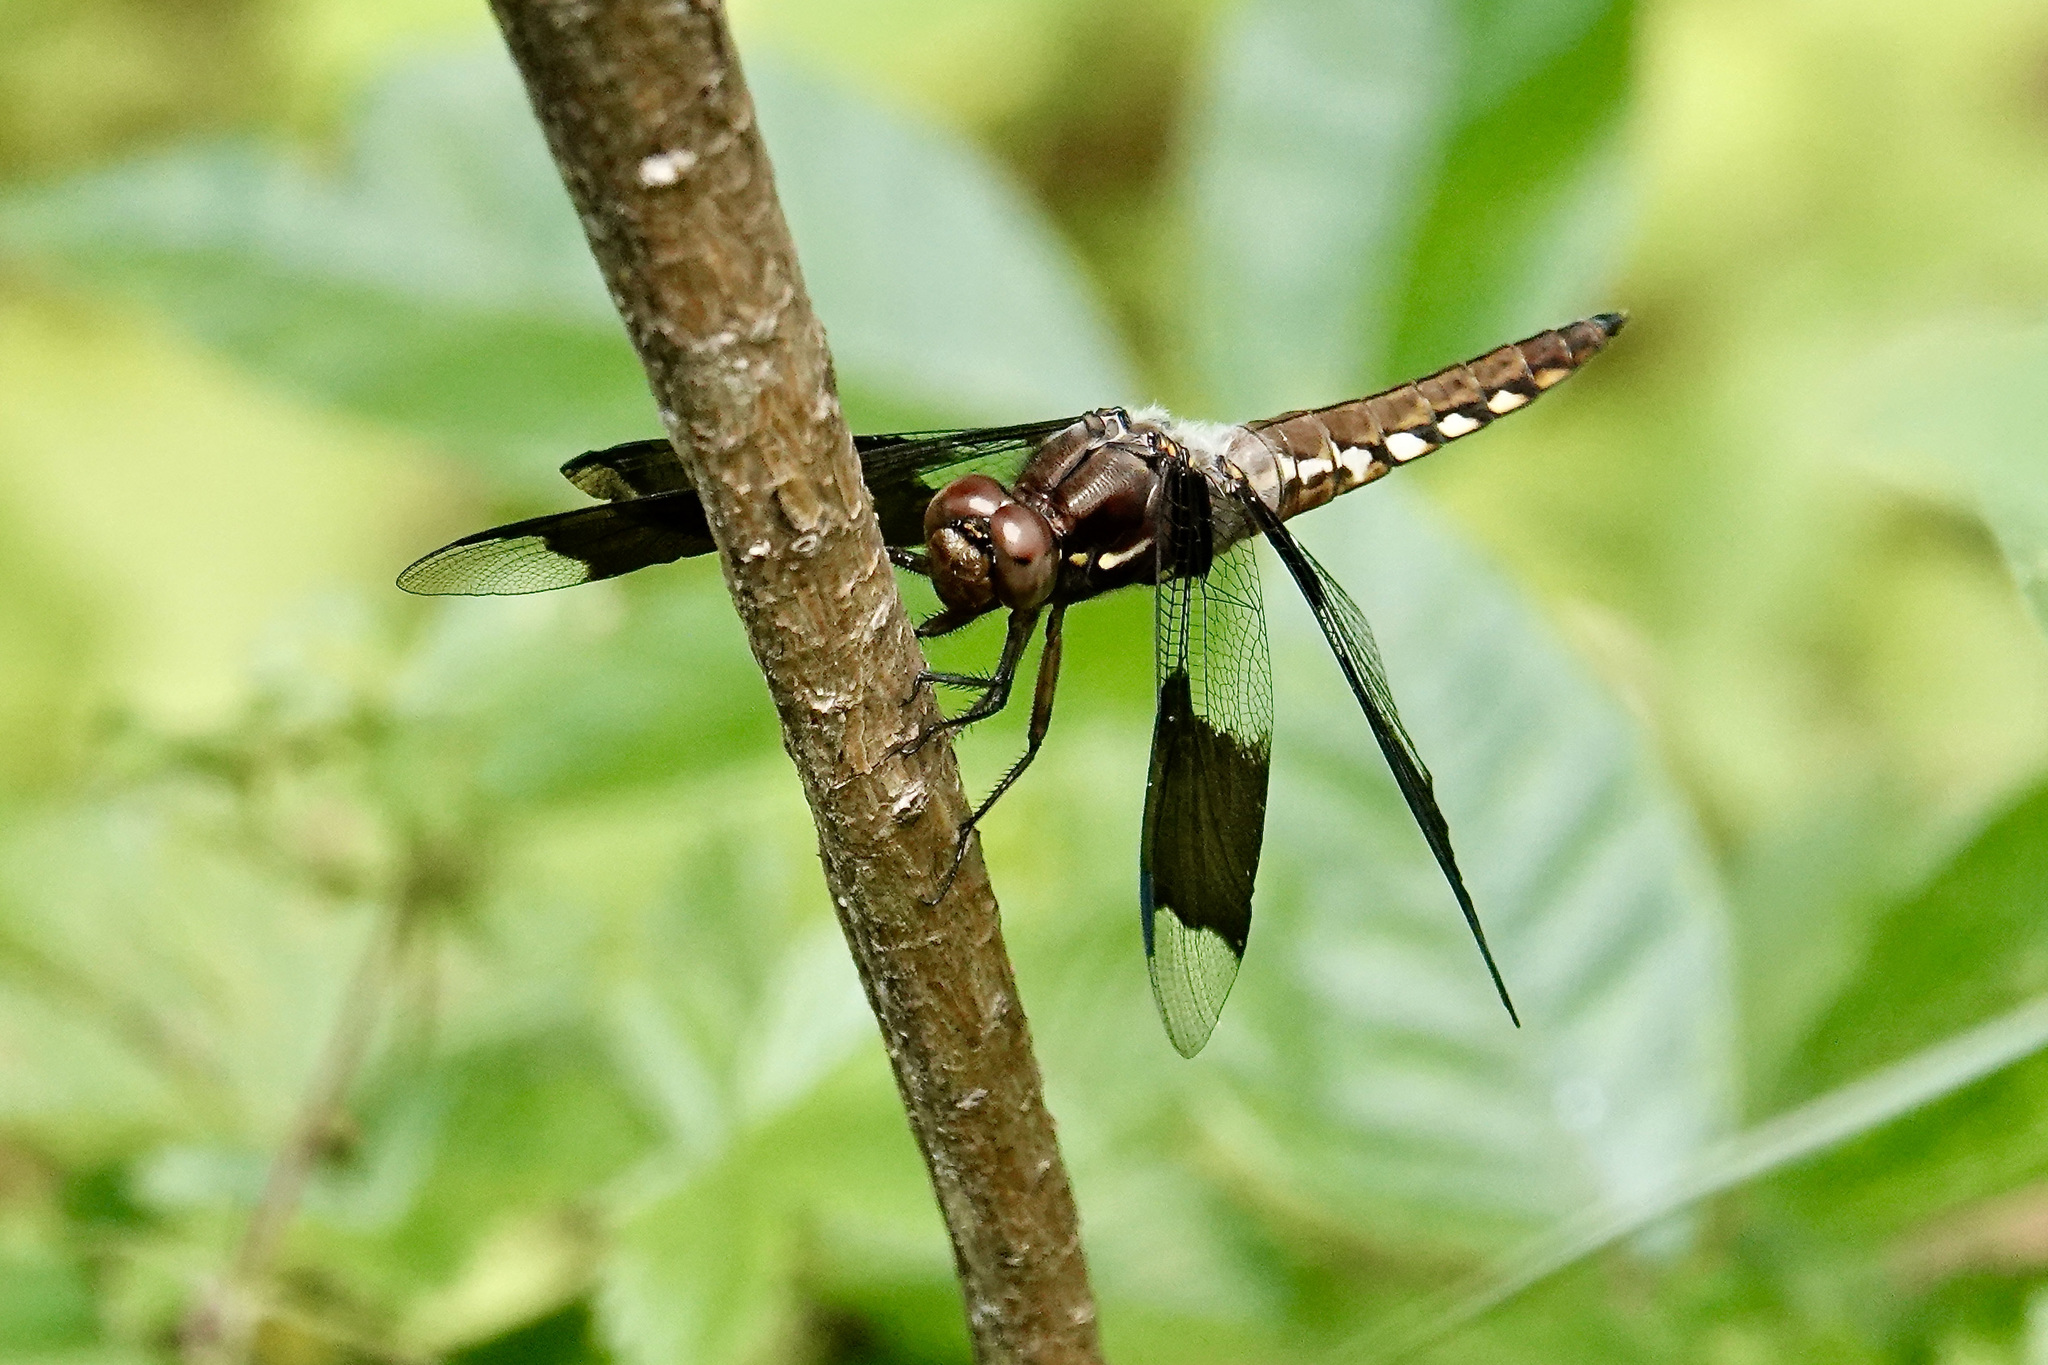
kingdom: Animalia
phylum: Arthropoda
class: Insecta
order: Odonata
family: Libellulidae
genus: Plathemis
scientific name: Plathemis lydia
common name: Common whitetail
